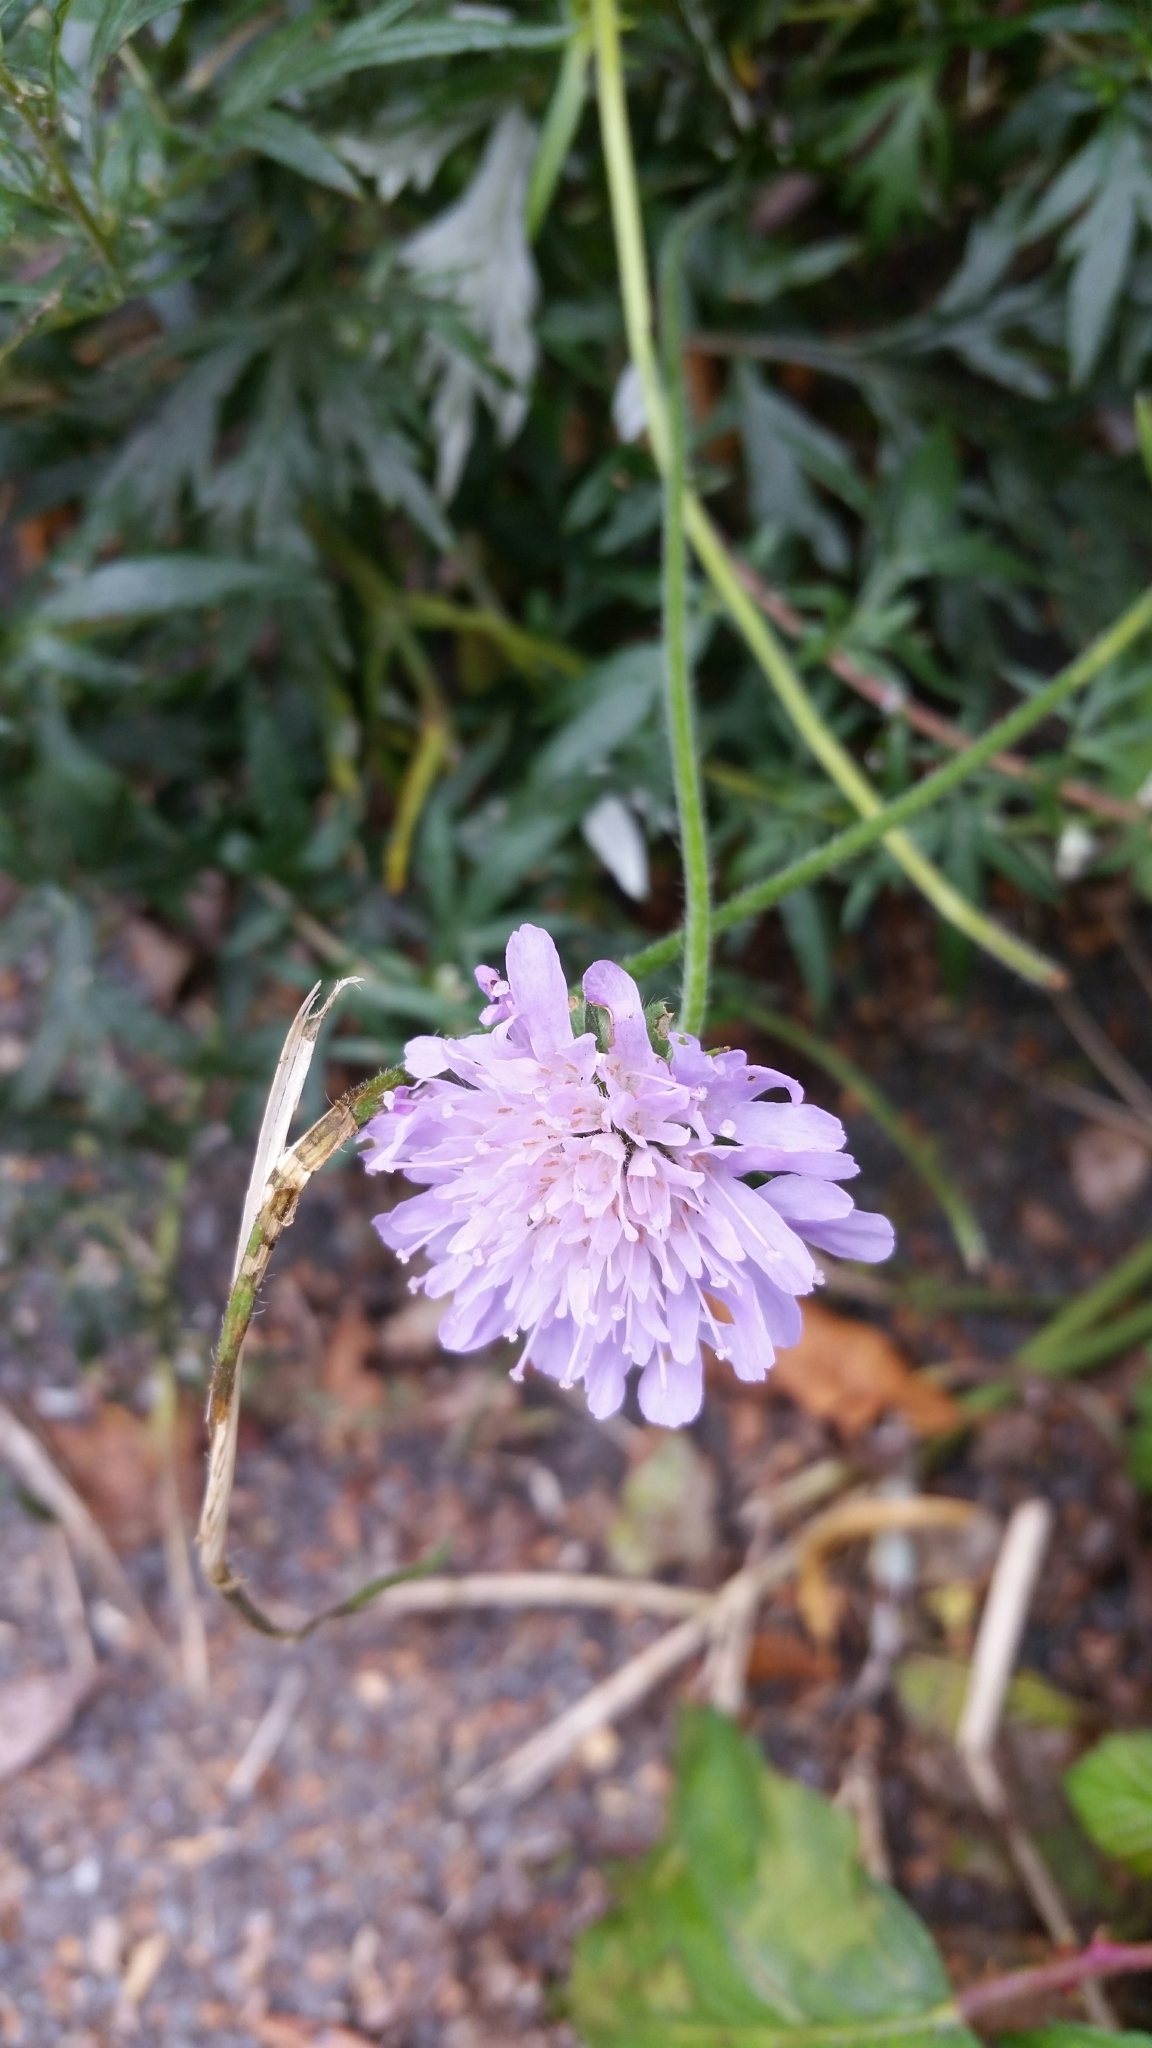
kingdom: Plantae
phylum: Tracheophyta
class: Magnoliopsida
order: Dipsacales
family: Caprifoliaceae
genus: Knautia
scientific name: Knautia arvensis
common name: Field scabiosa
